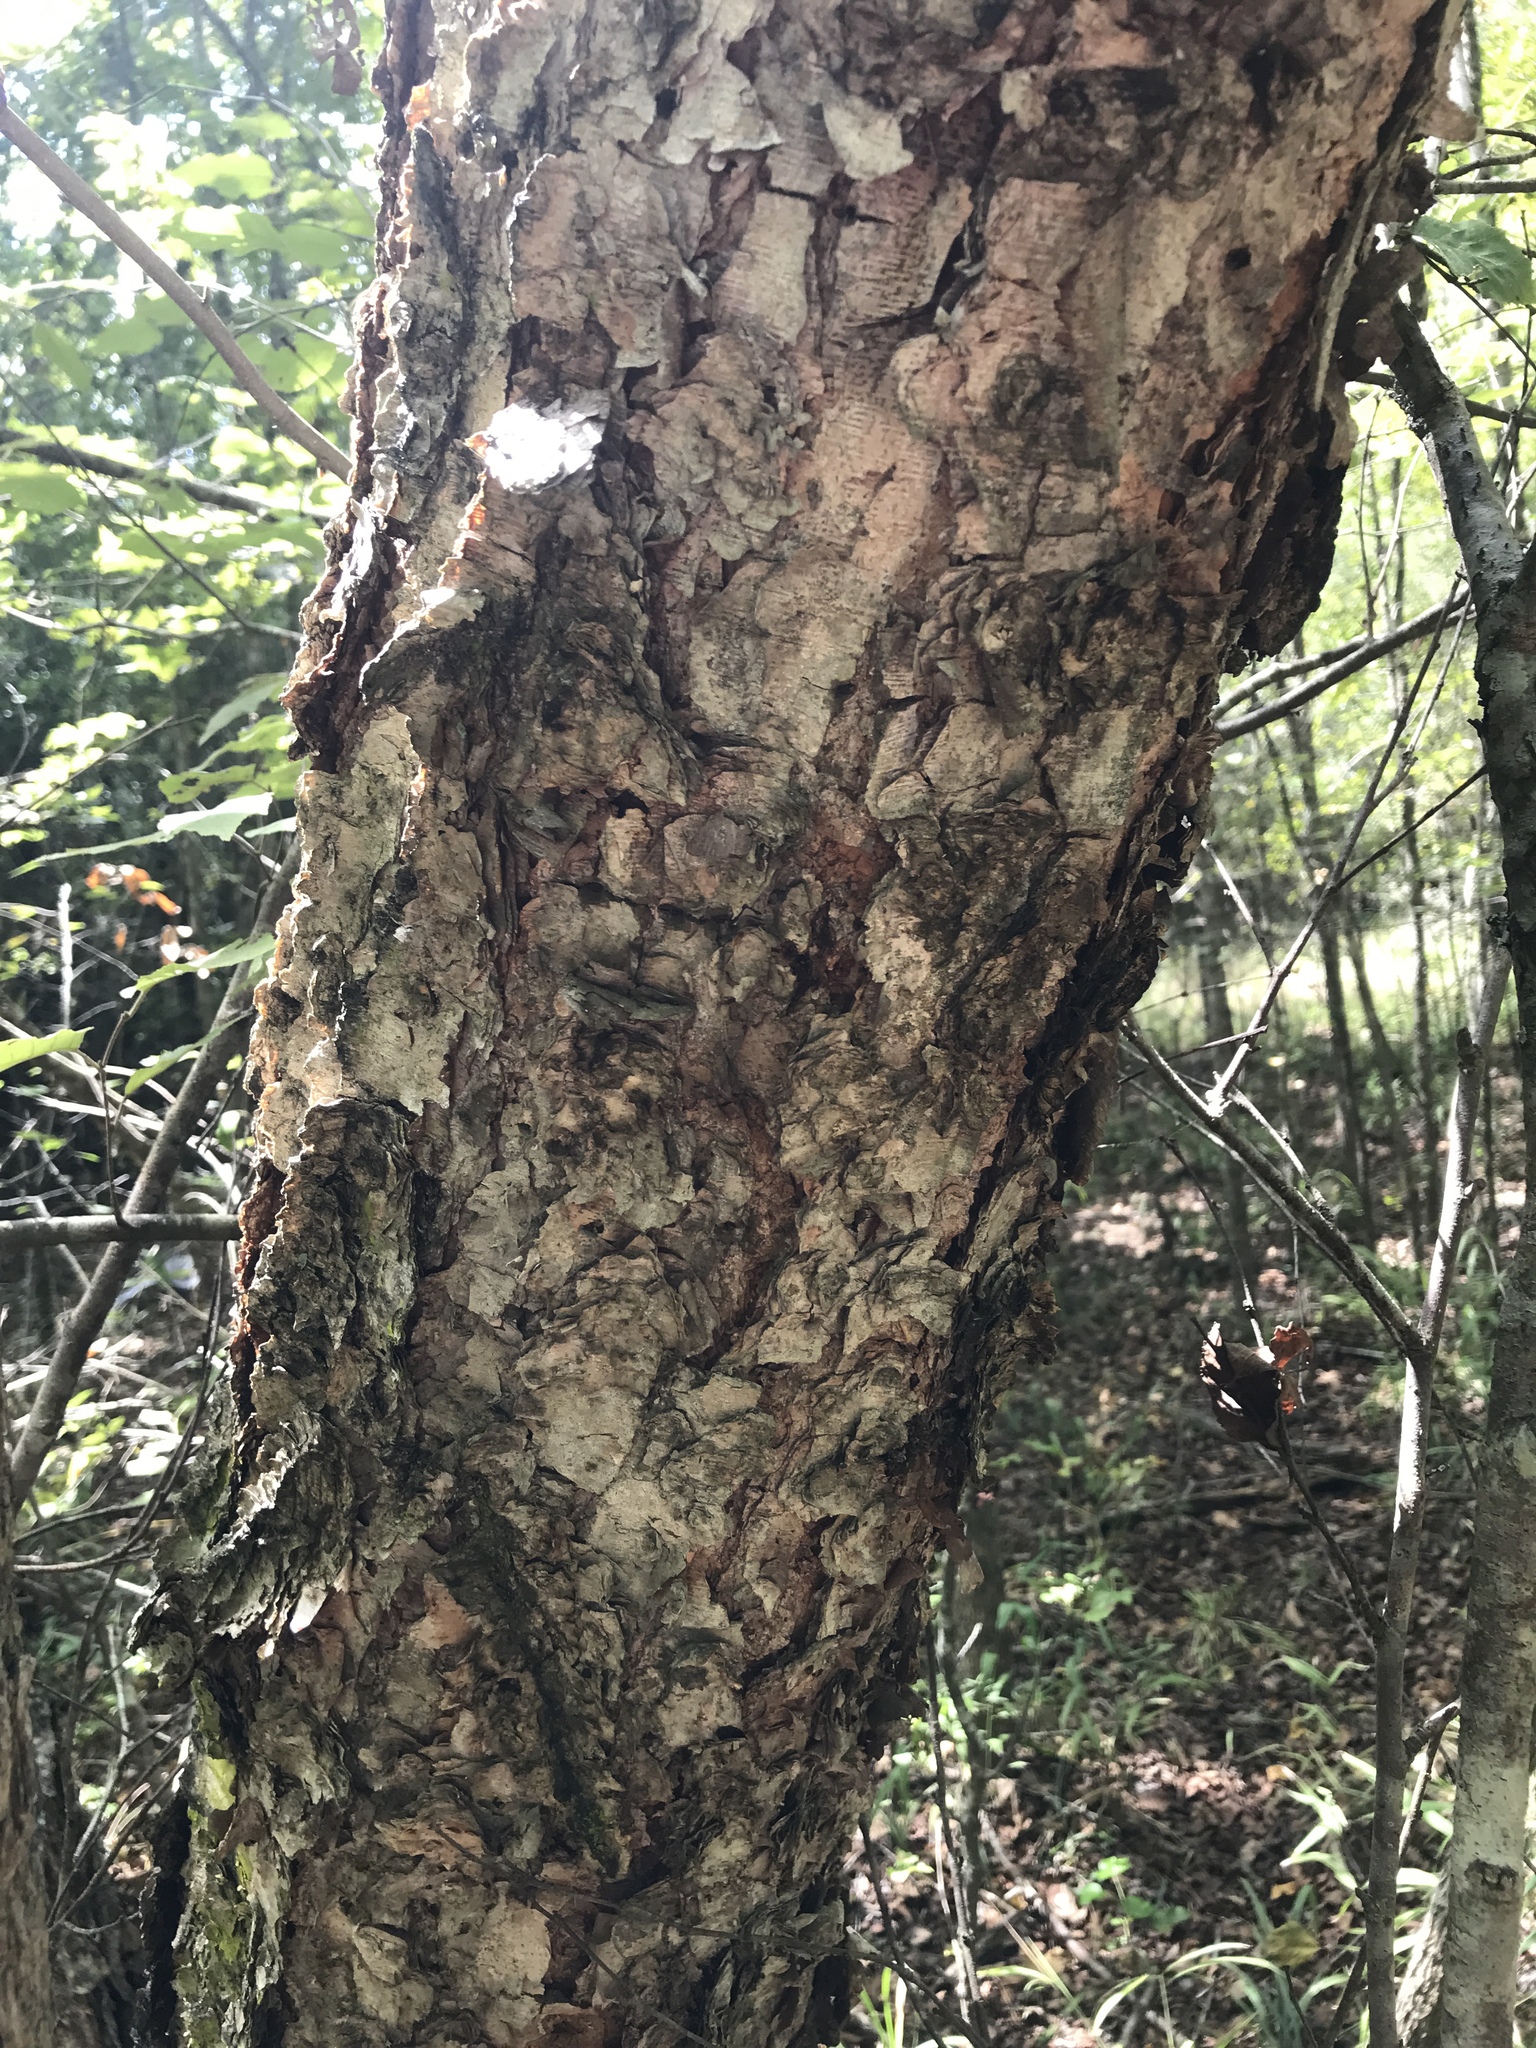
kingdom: Plantae
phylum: Tracheophyta
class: Magnoliopsida
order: Fagales
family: Betulaceae
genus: Betula
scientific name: Betula nigra
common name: Black birch
